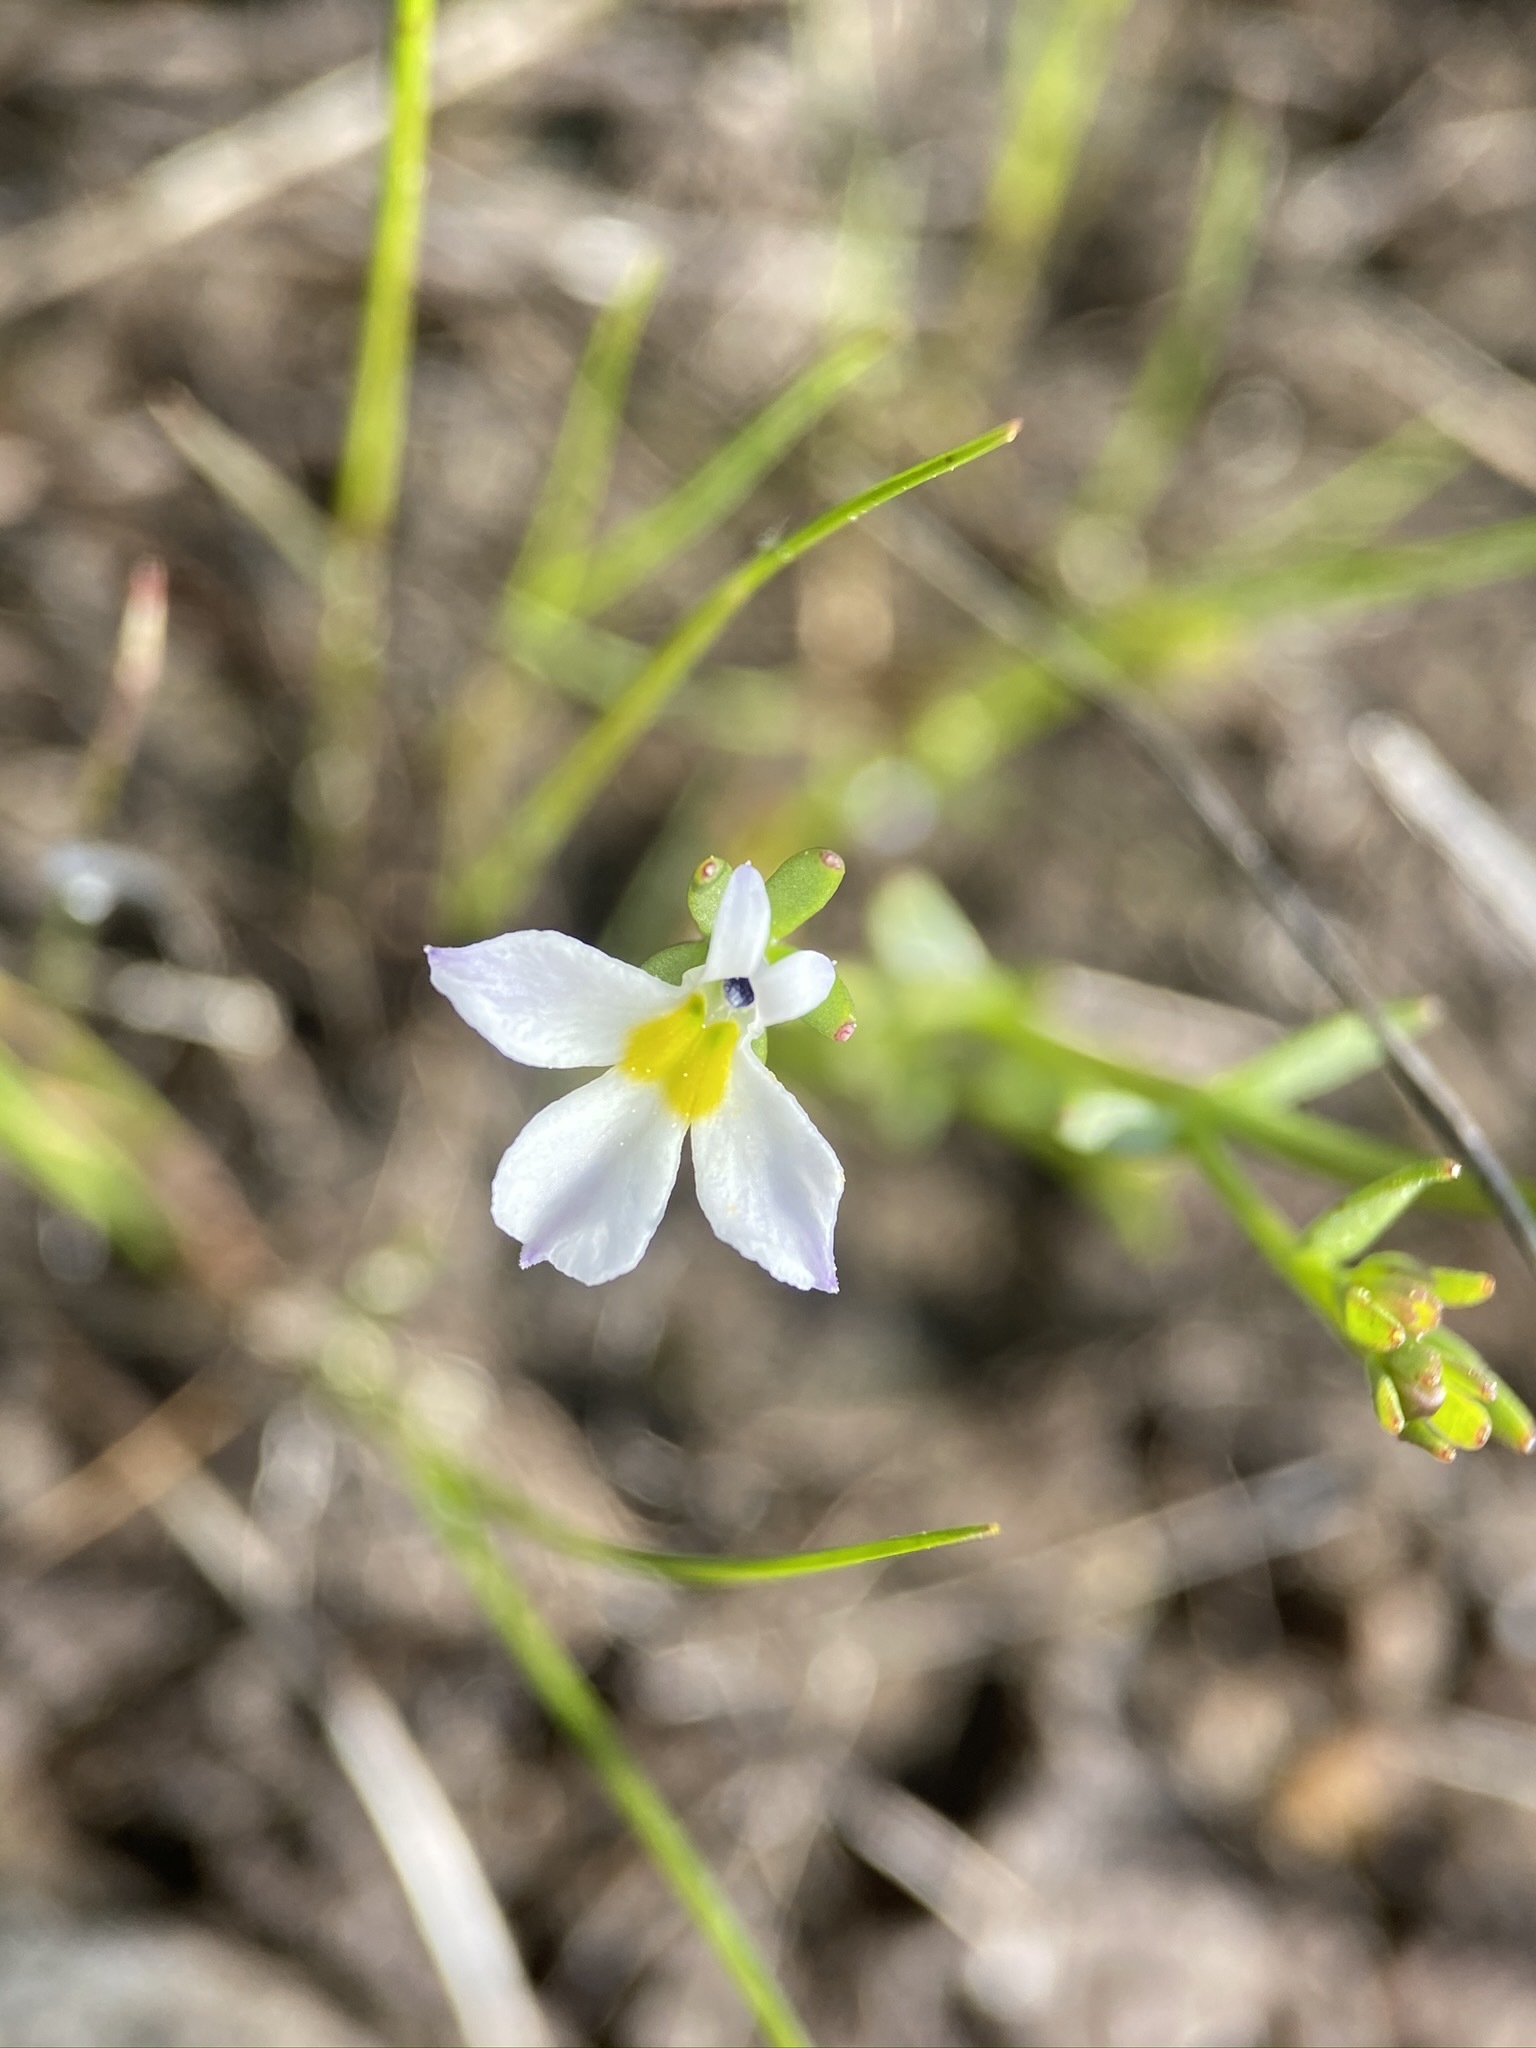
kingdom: Plantae
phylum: Tracheophyta
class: Magnoliopsida
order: Asterales
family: Campanulaceae
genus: Downingia
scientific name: Downingia cuspidata
